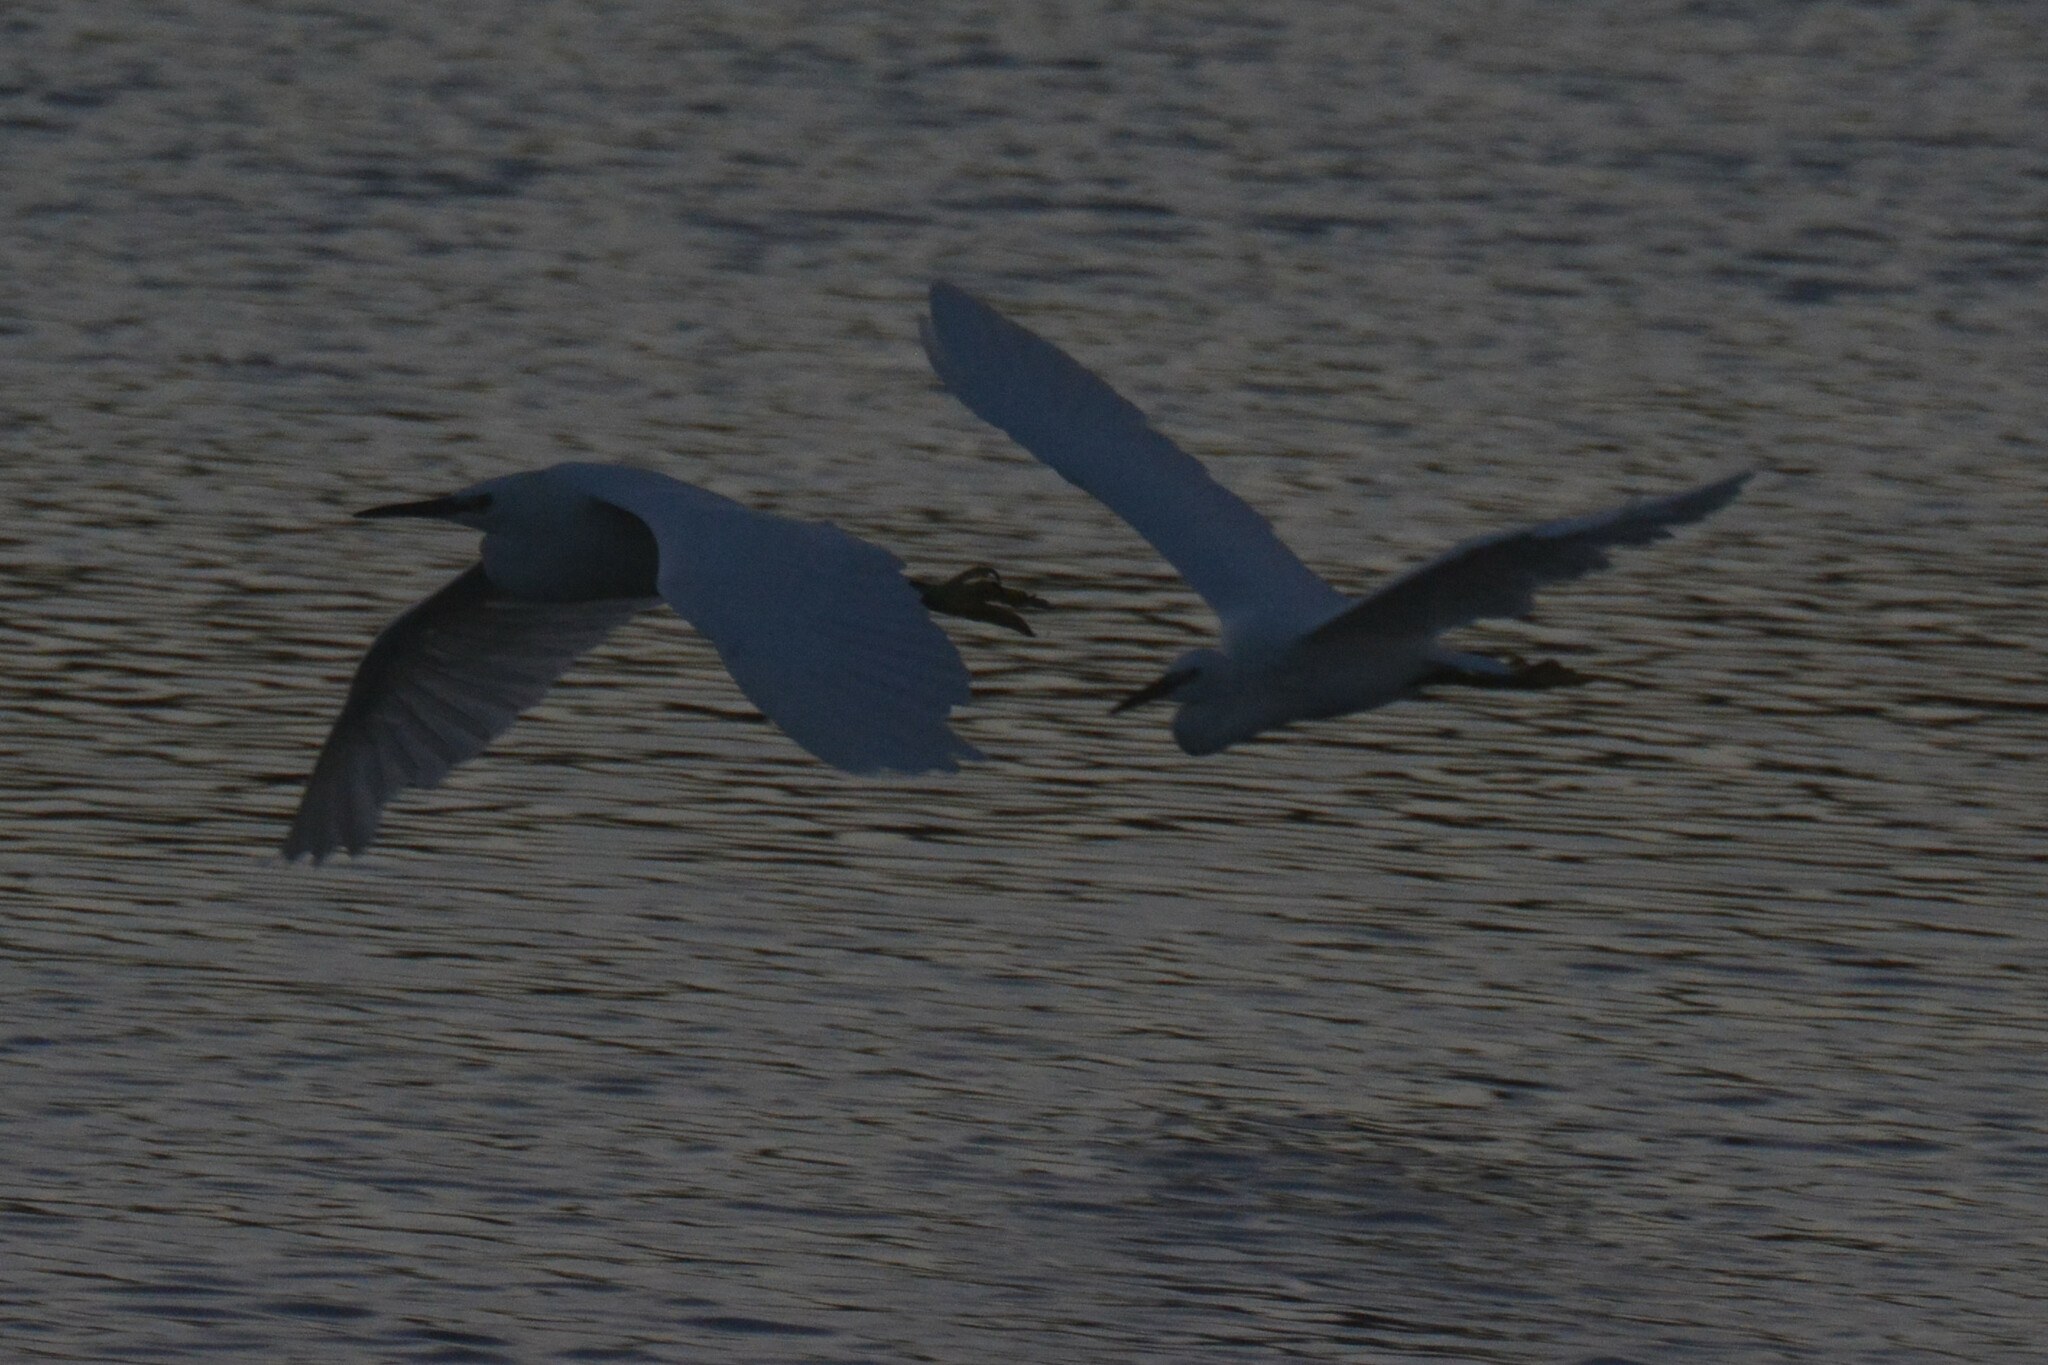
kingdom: Animalia
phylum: Chordata
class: Aves
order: Pelecaniformes
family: Ardeidae
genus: Egretta
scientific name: Egretta garzetta
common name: Little egret
